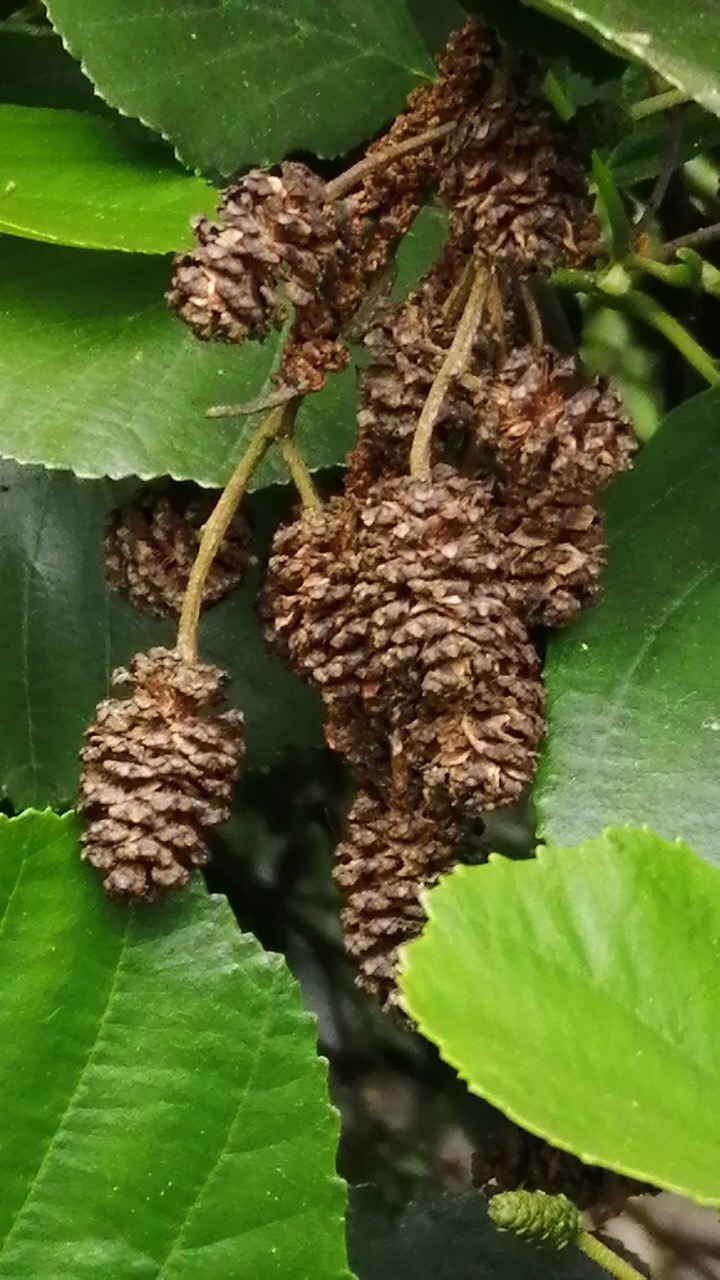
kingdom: Plantae
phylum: Tracheophyta
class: Magnoliopsida
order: Fagales
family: Betulaceae
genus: Alnus
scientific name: Alnus glutinosa
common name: Black alder
